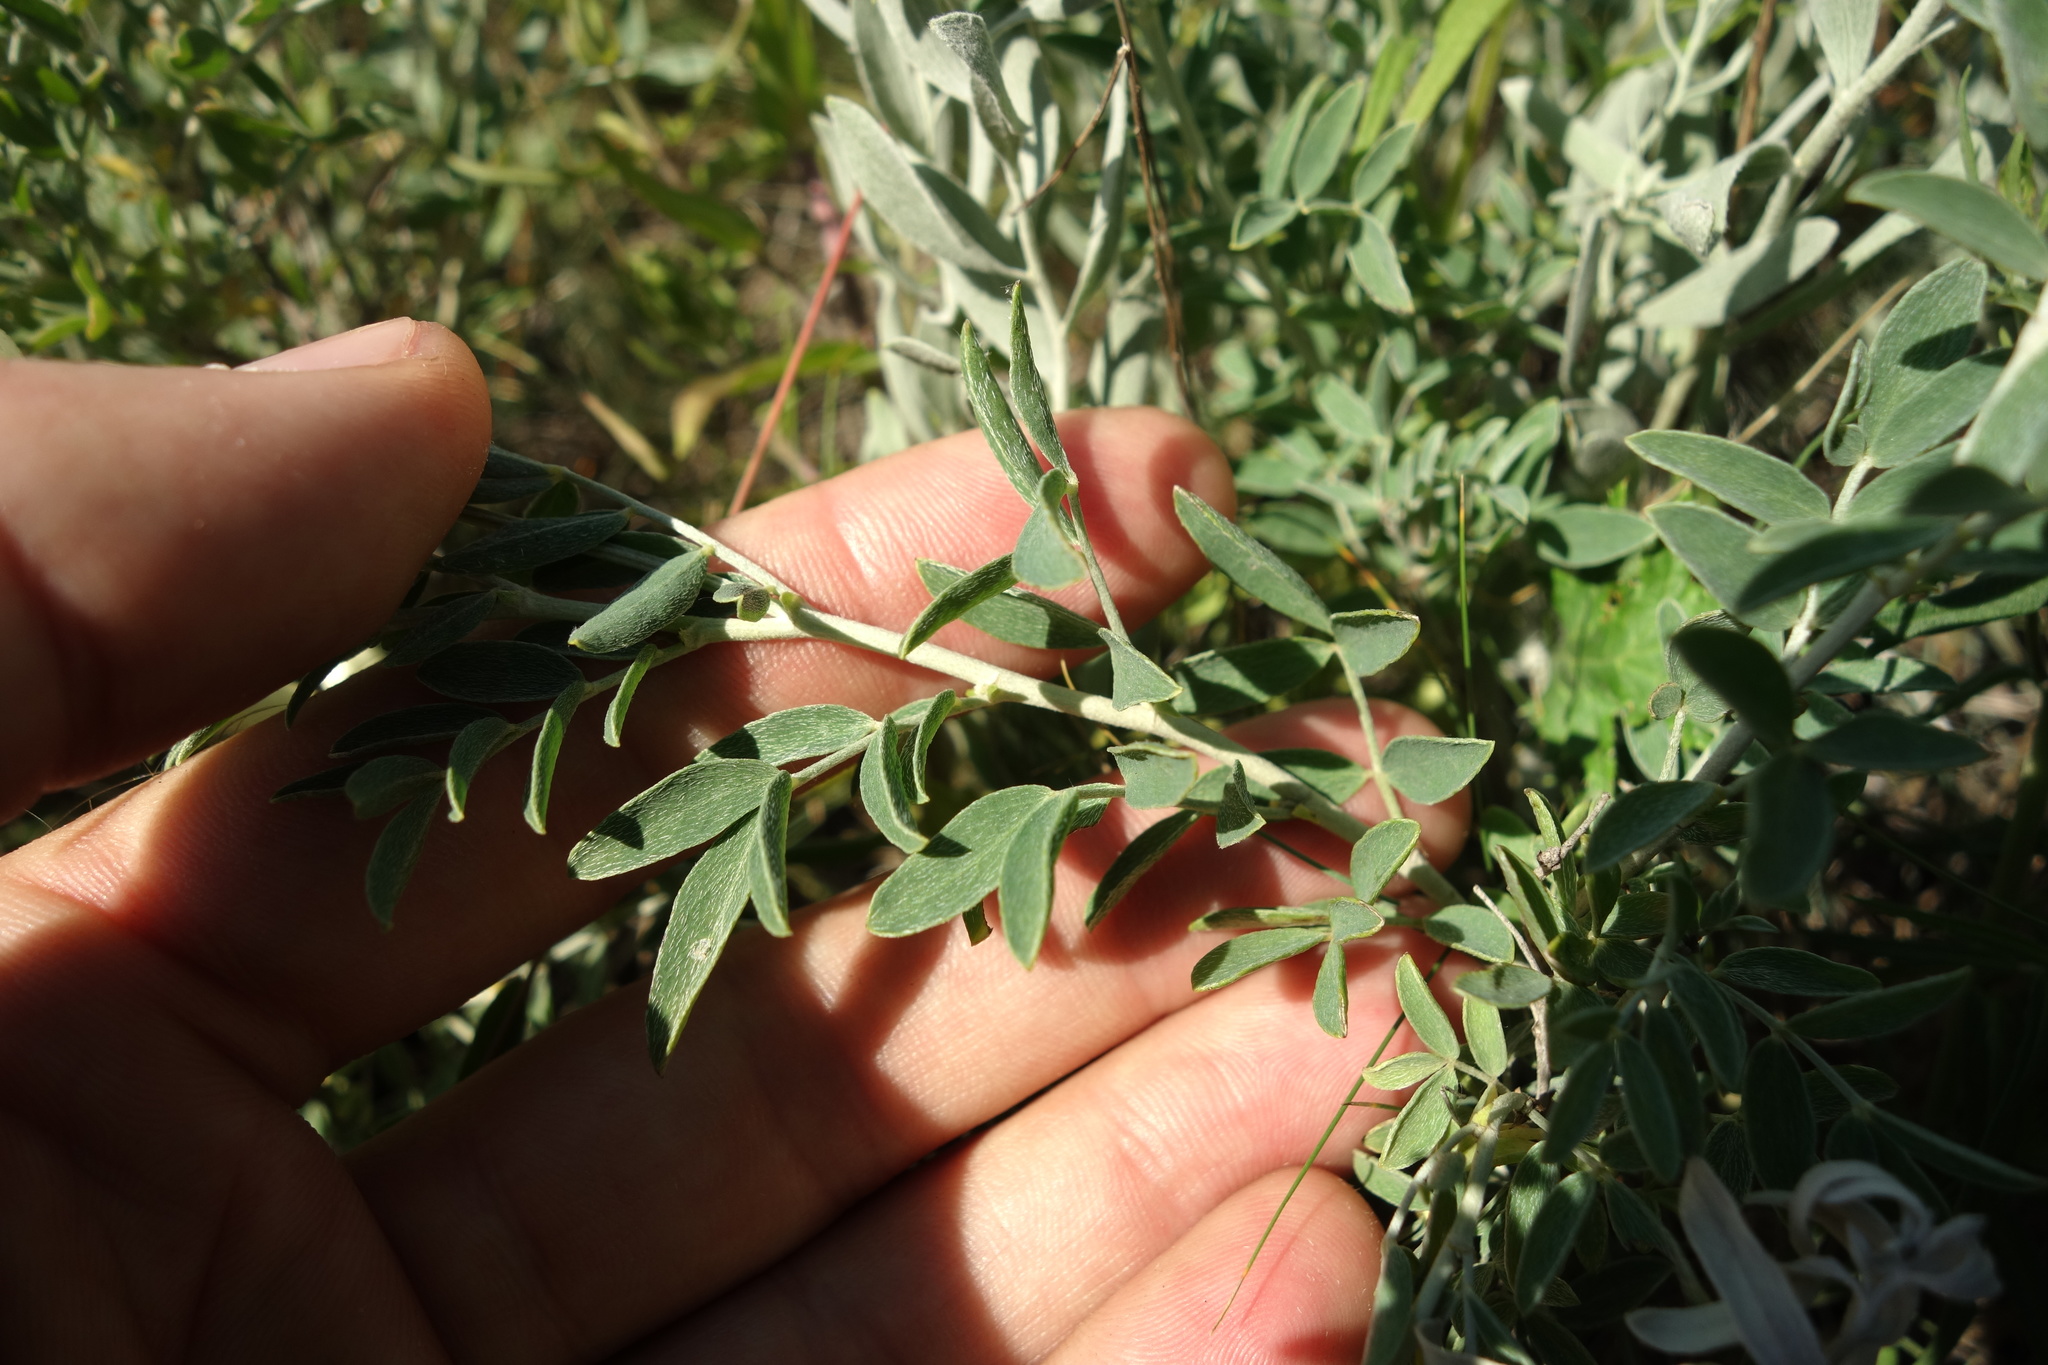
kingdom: Plantae
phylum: Tracheophyta
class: Magnoliopsida
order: Fabales
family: Fabaceae
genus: Astragalus
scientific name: Astragalus albicaulis
